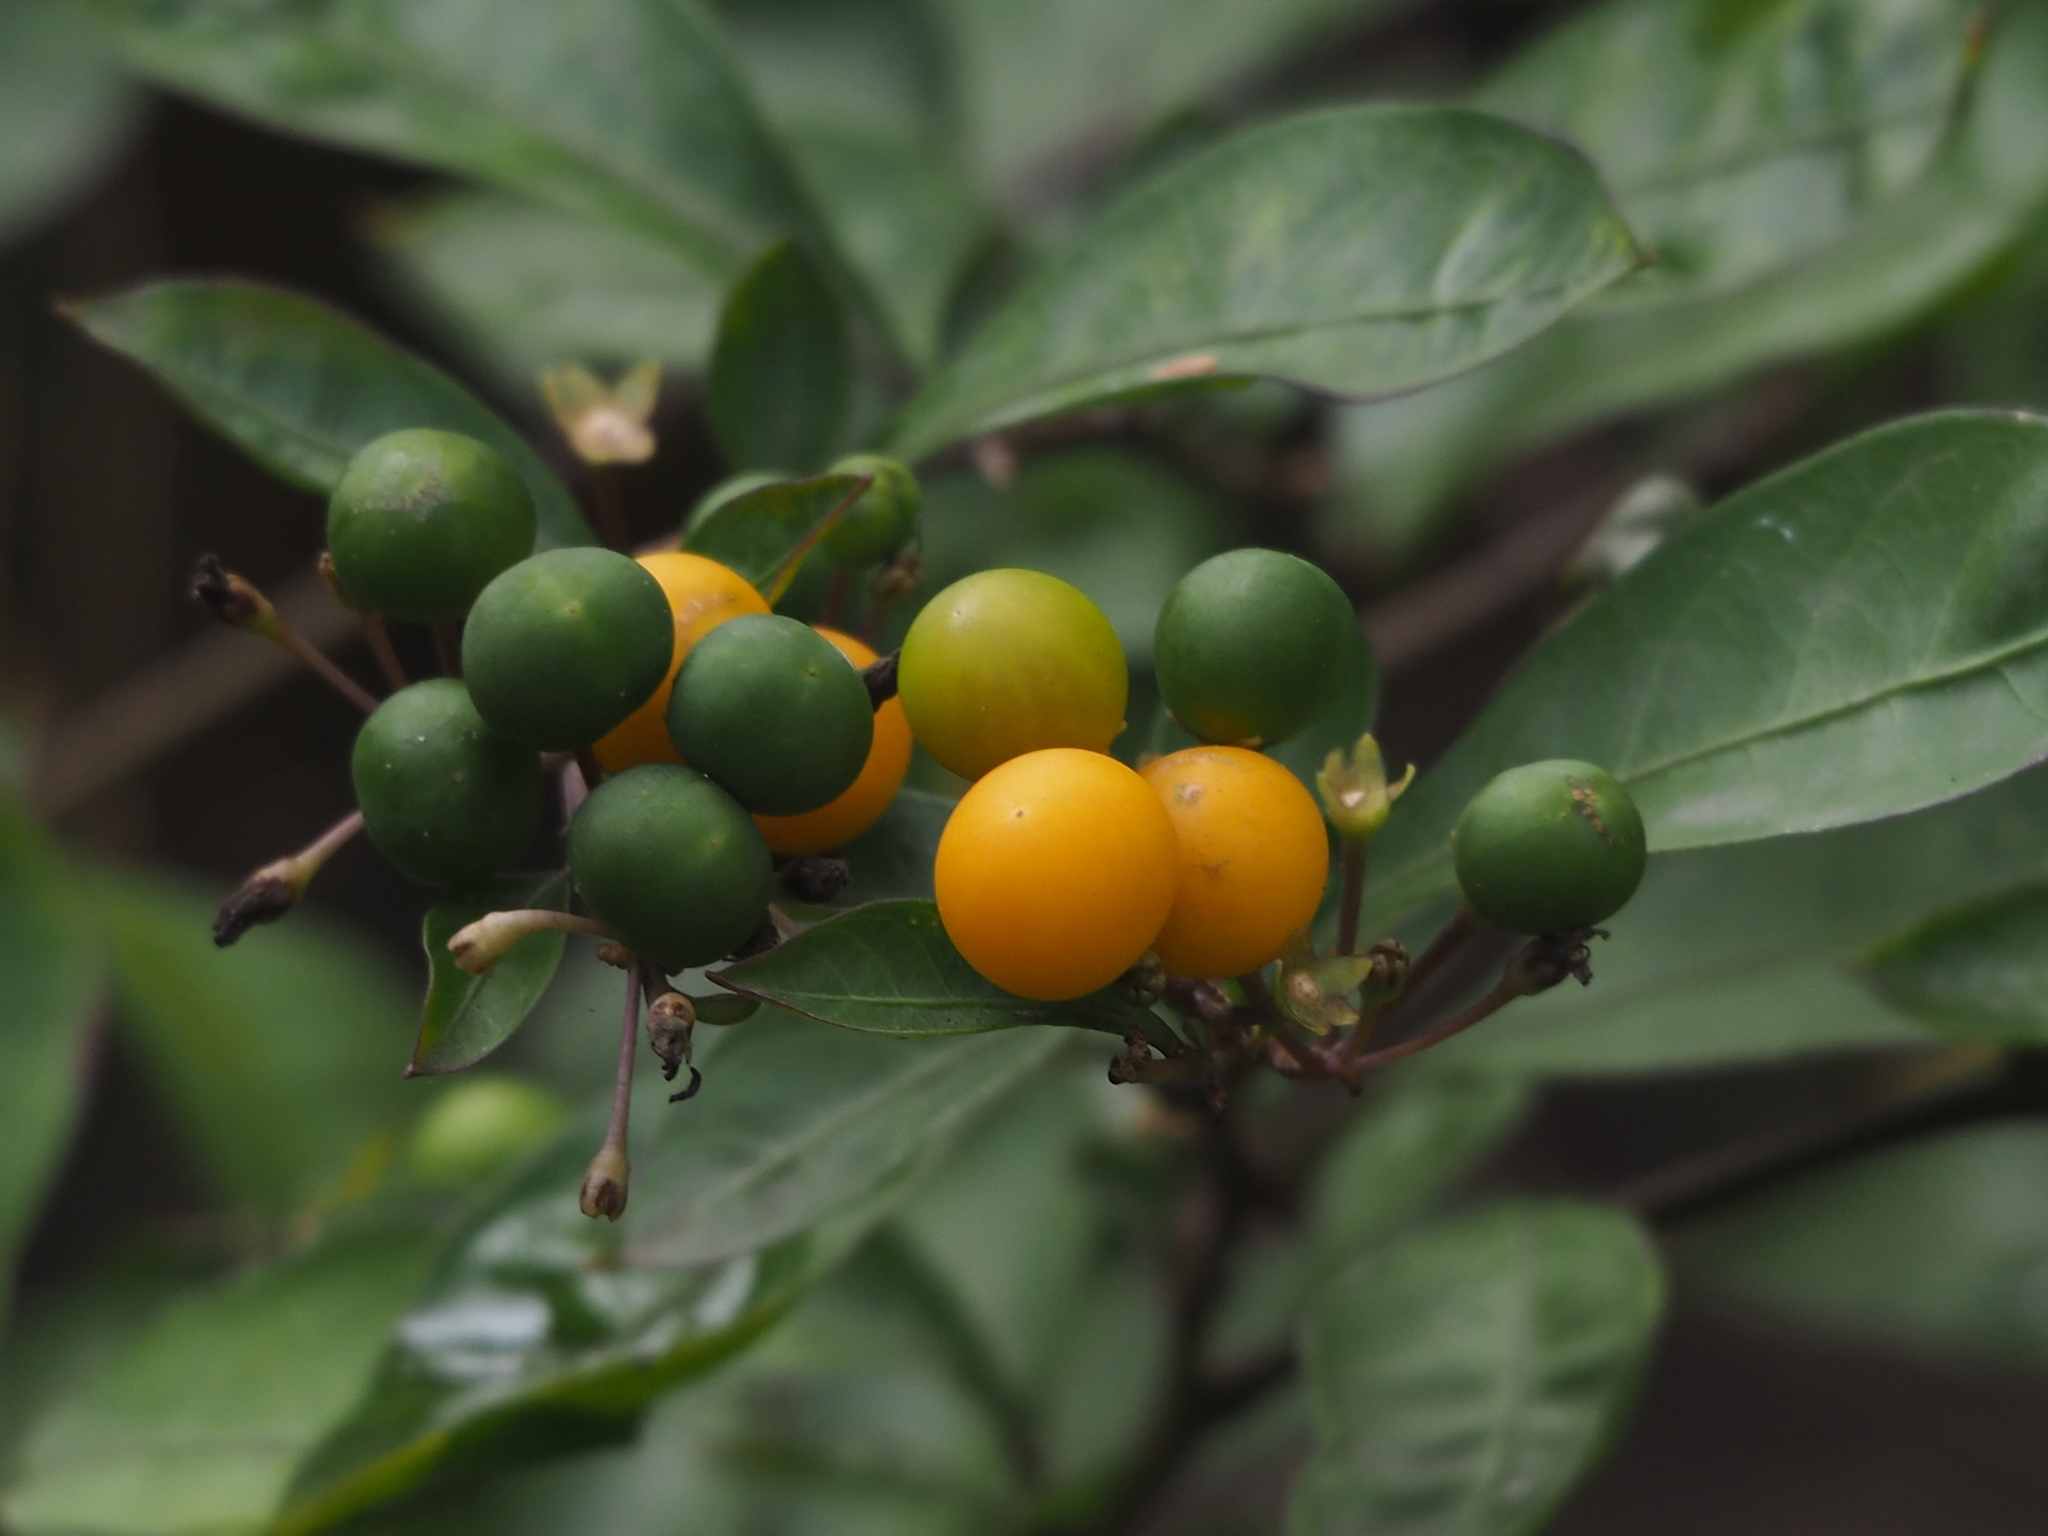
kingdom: Plantae
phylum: Tracheophyta
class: Magnoliopsida
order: Solanales
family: Solanaceae
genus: Solanum
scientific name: Solanum diphyllum
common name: Twoleaf nightshade
